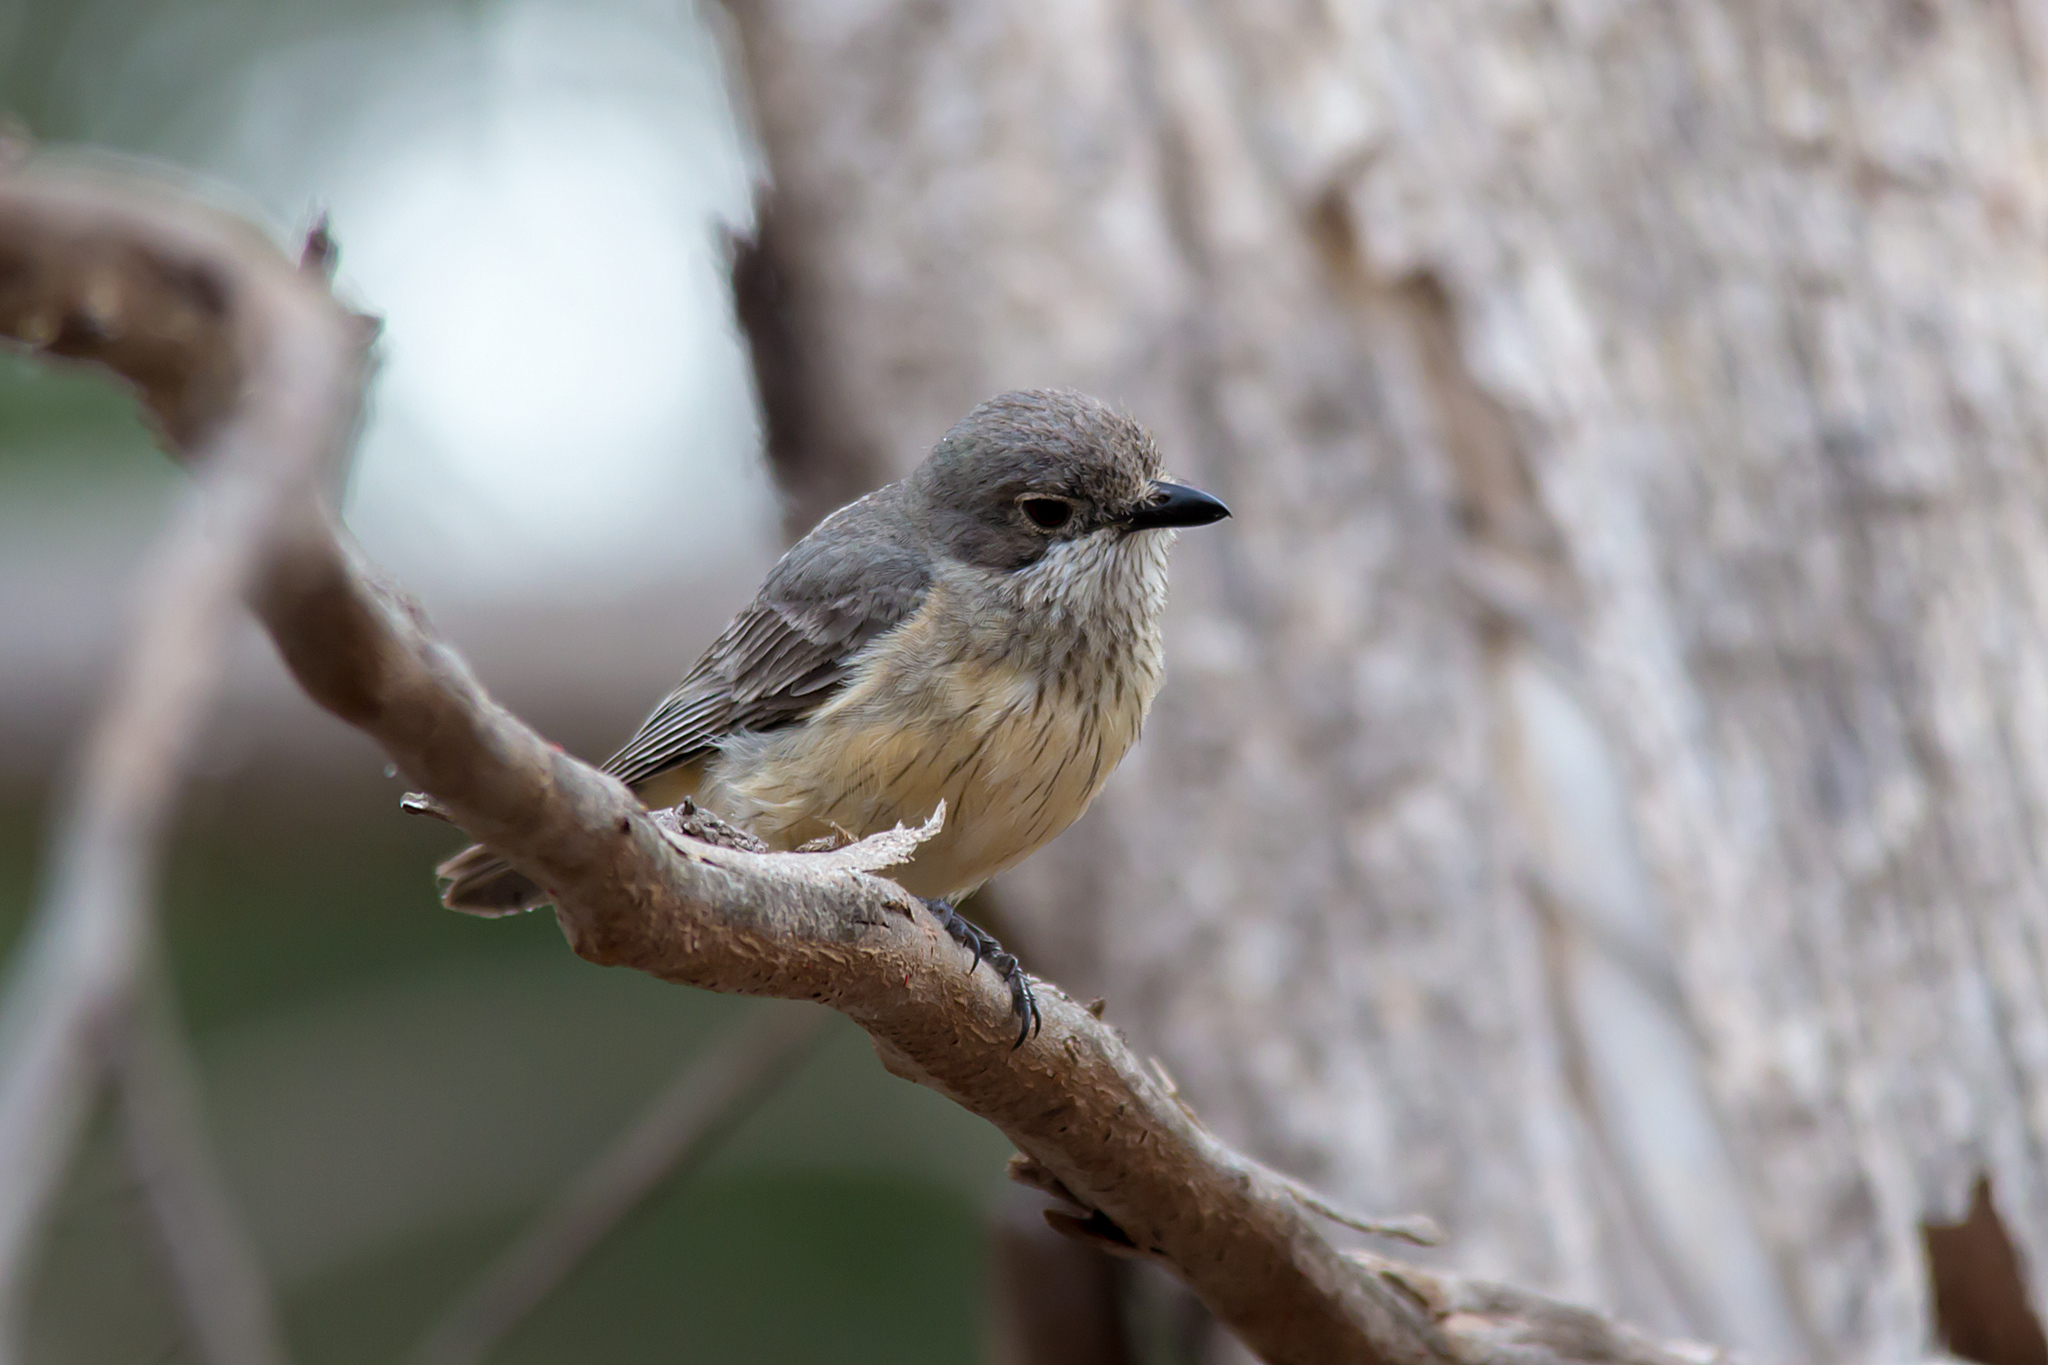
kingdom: Animalia
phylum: Chordata
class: Aves
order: Passeriformes
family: Pachycephalidae
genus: Pachycephala
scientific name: Pachycephala rufiventris
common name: Rufous whistler
